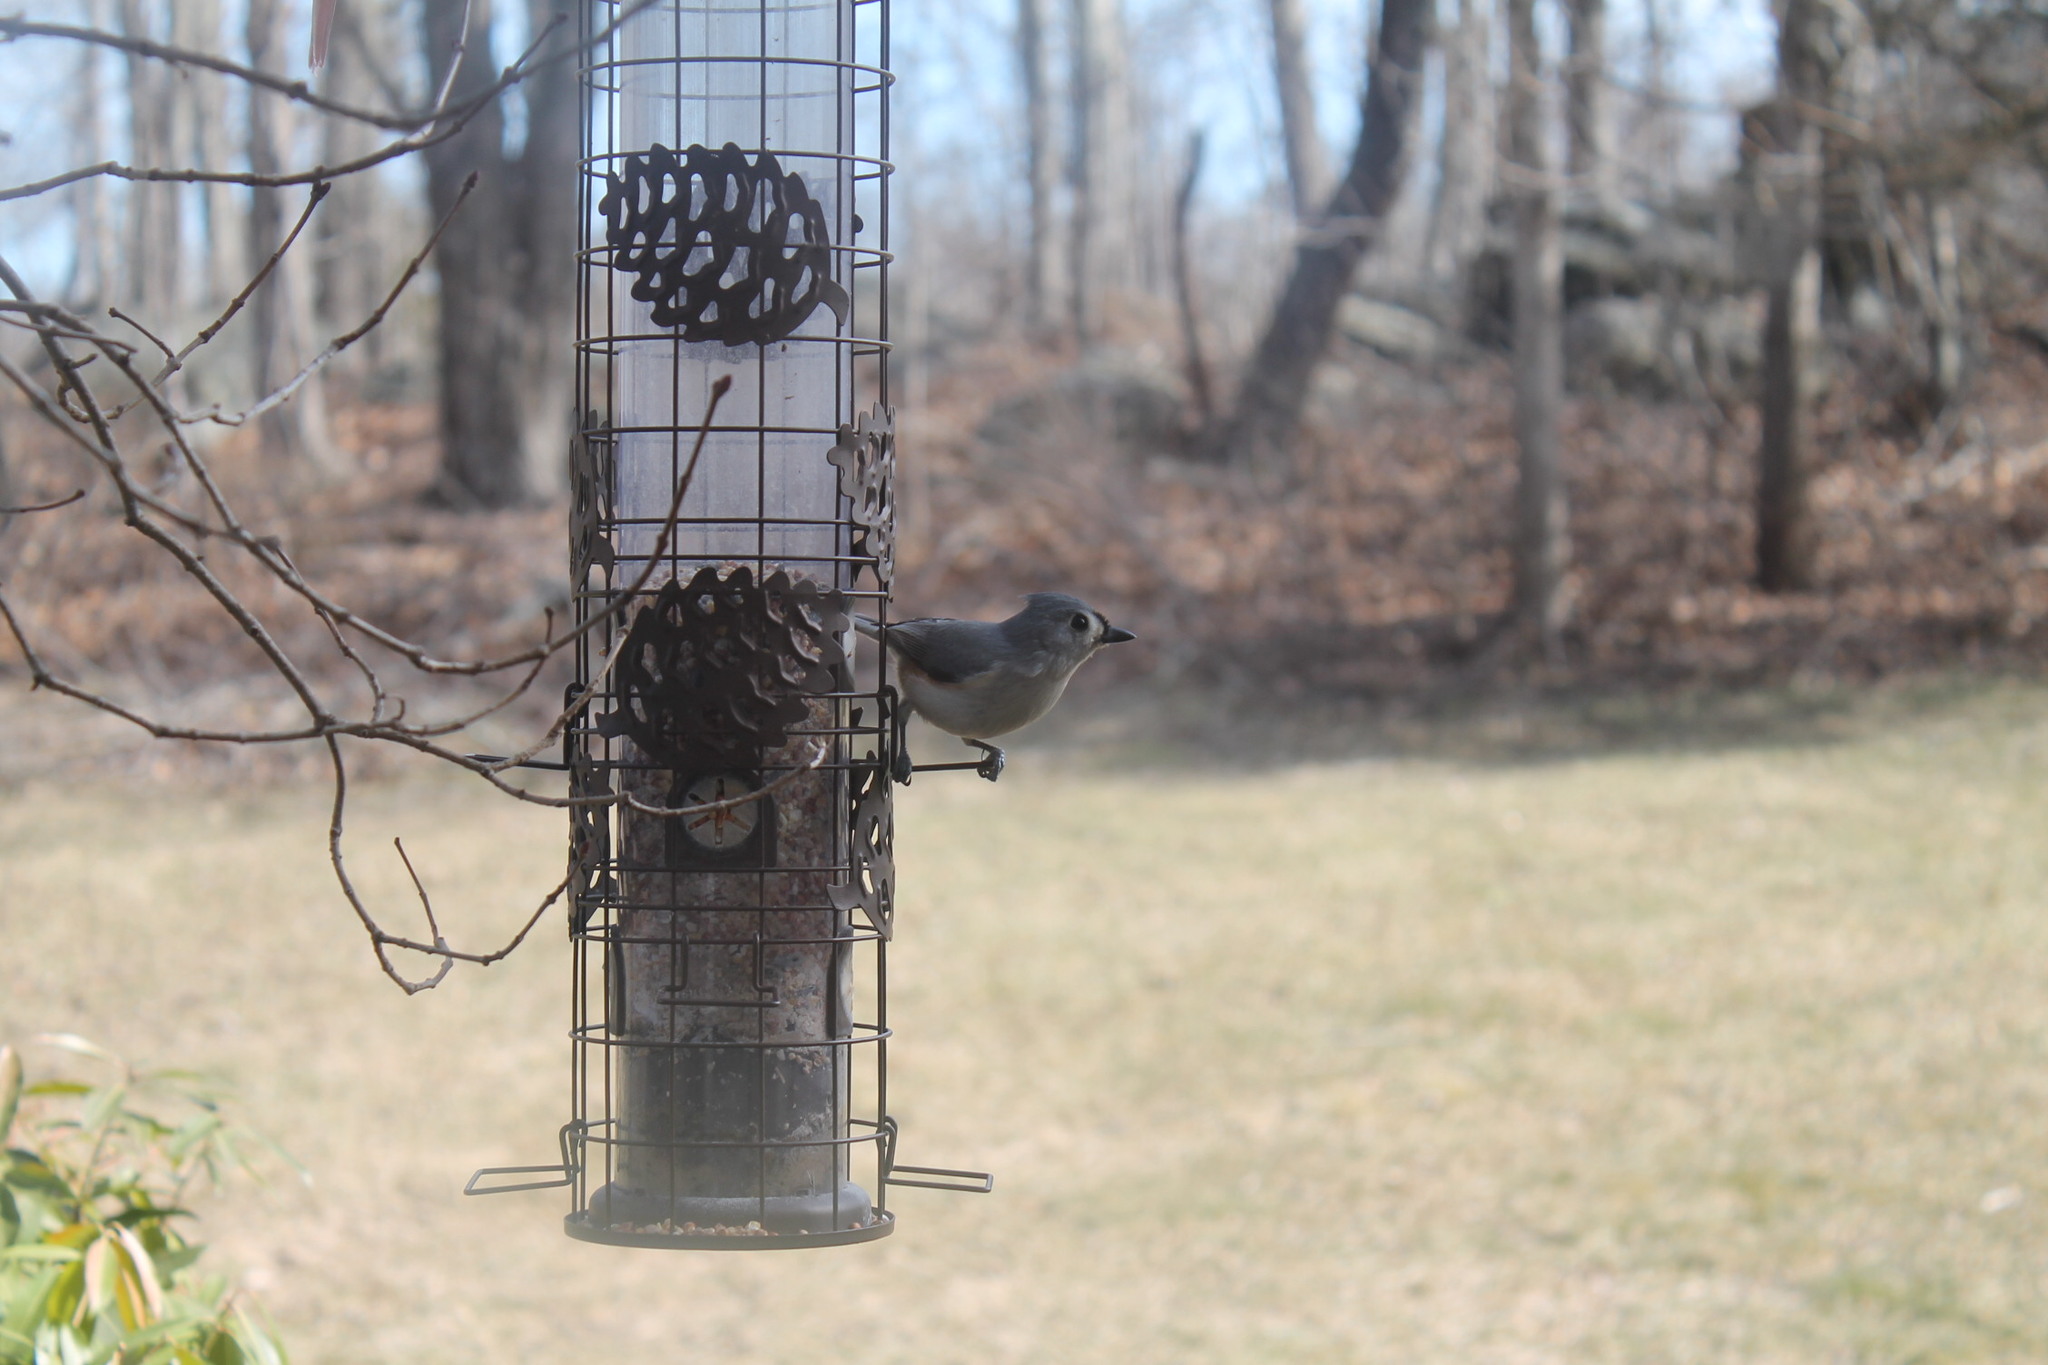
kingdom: Animalia
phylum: Chordata
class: Aves
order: Passeriformes
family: Paridae
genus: Baeolophus
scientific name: Baeolophus bicolor
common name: Tufted titmouse
